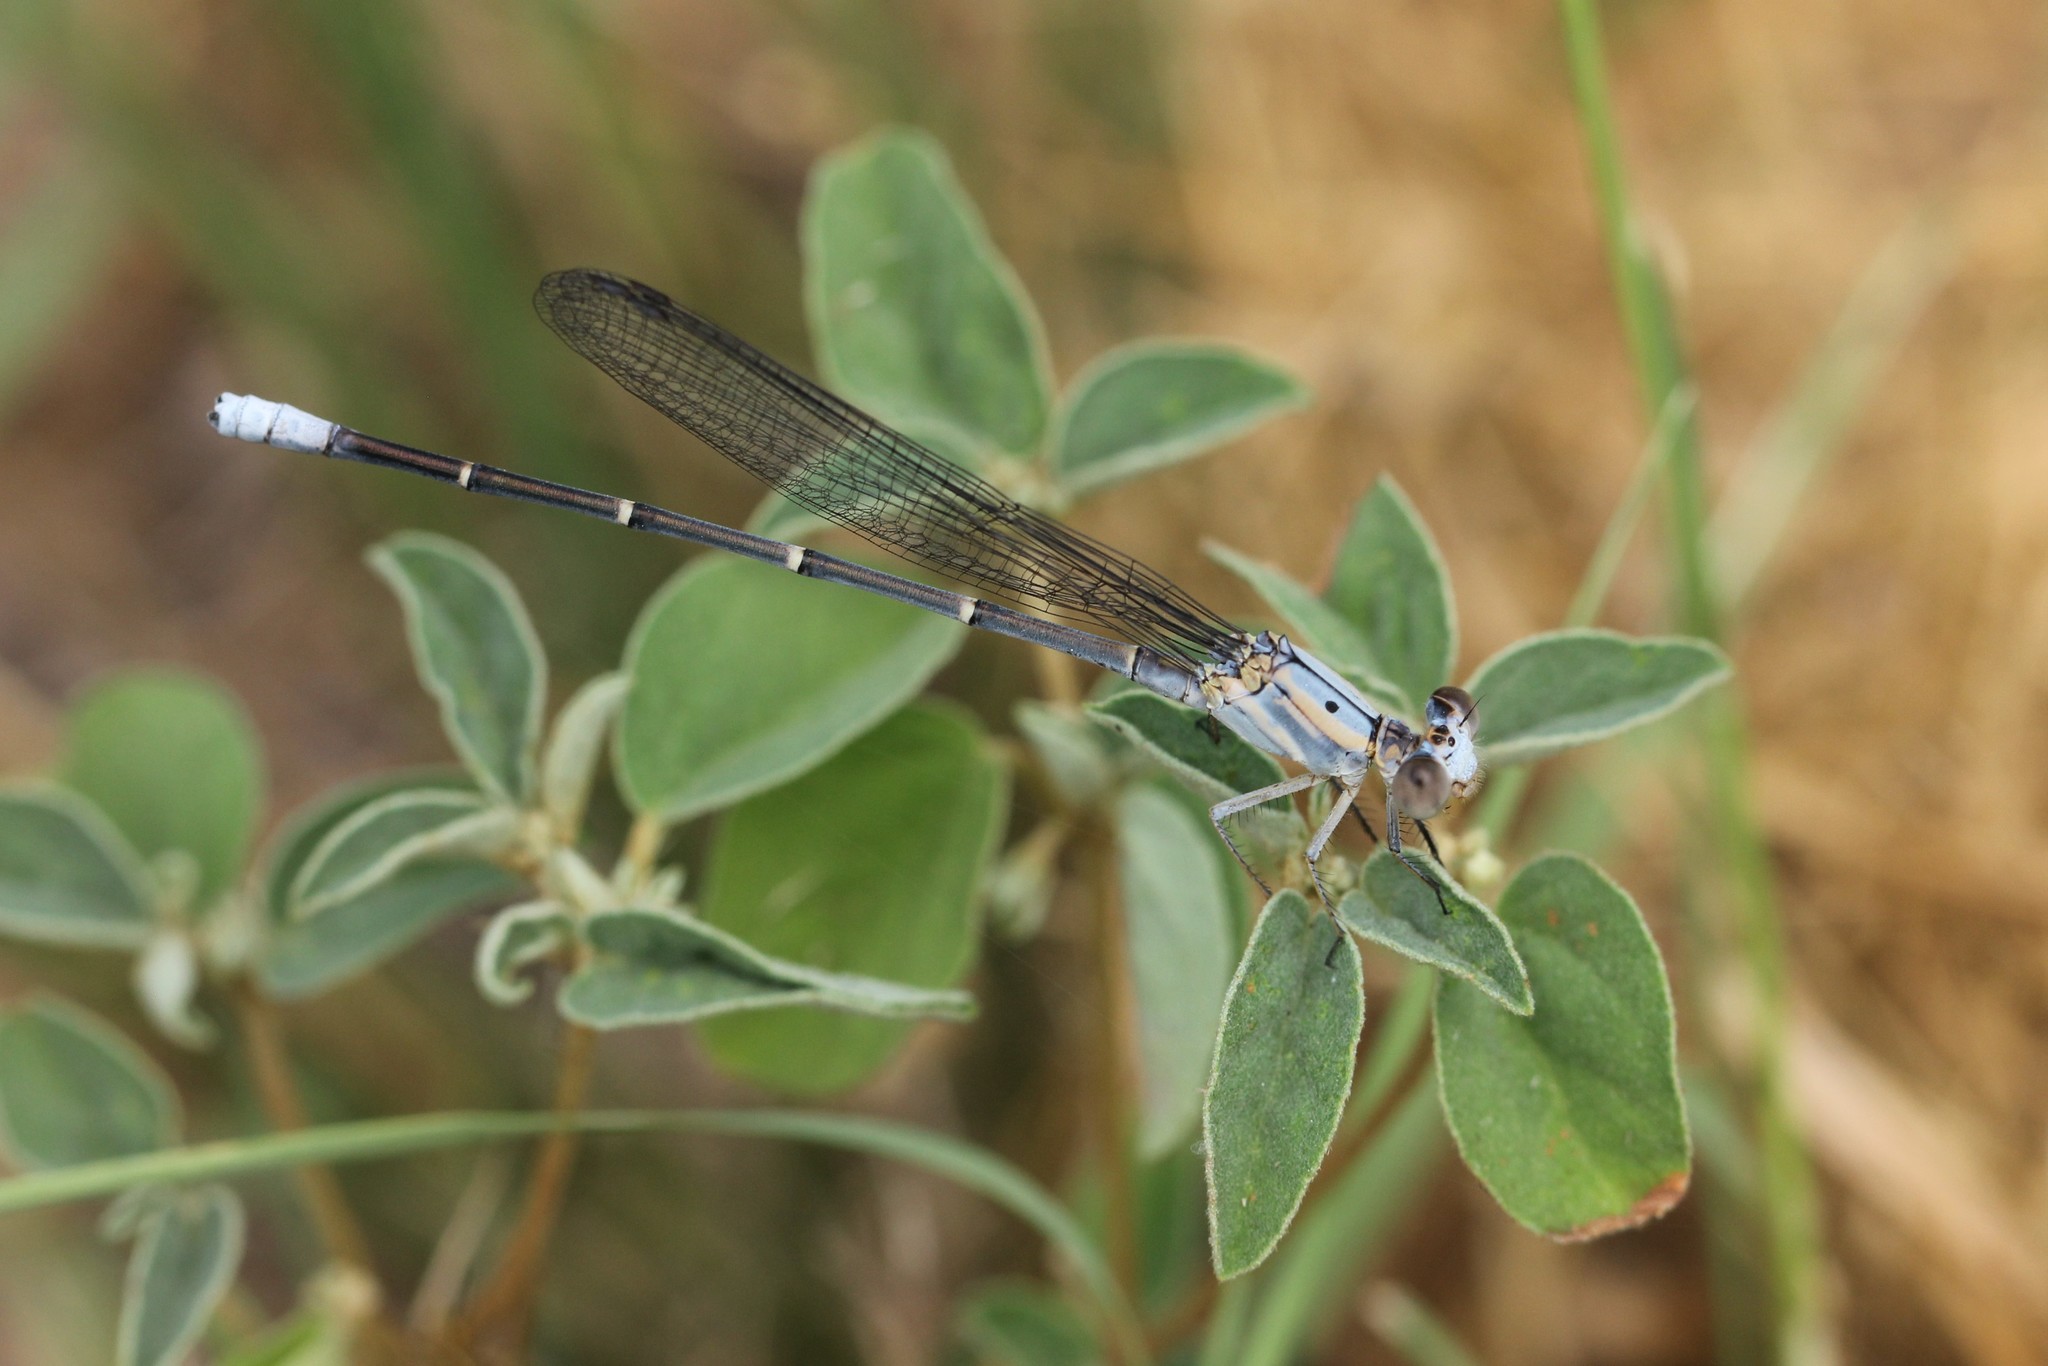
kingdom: Animalia
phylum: Arthropoda
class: Insecta
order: Odonata
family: Coenagrionidae
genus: Argia
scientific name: Argia moesta
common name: Powdered dancer
